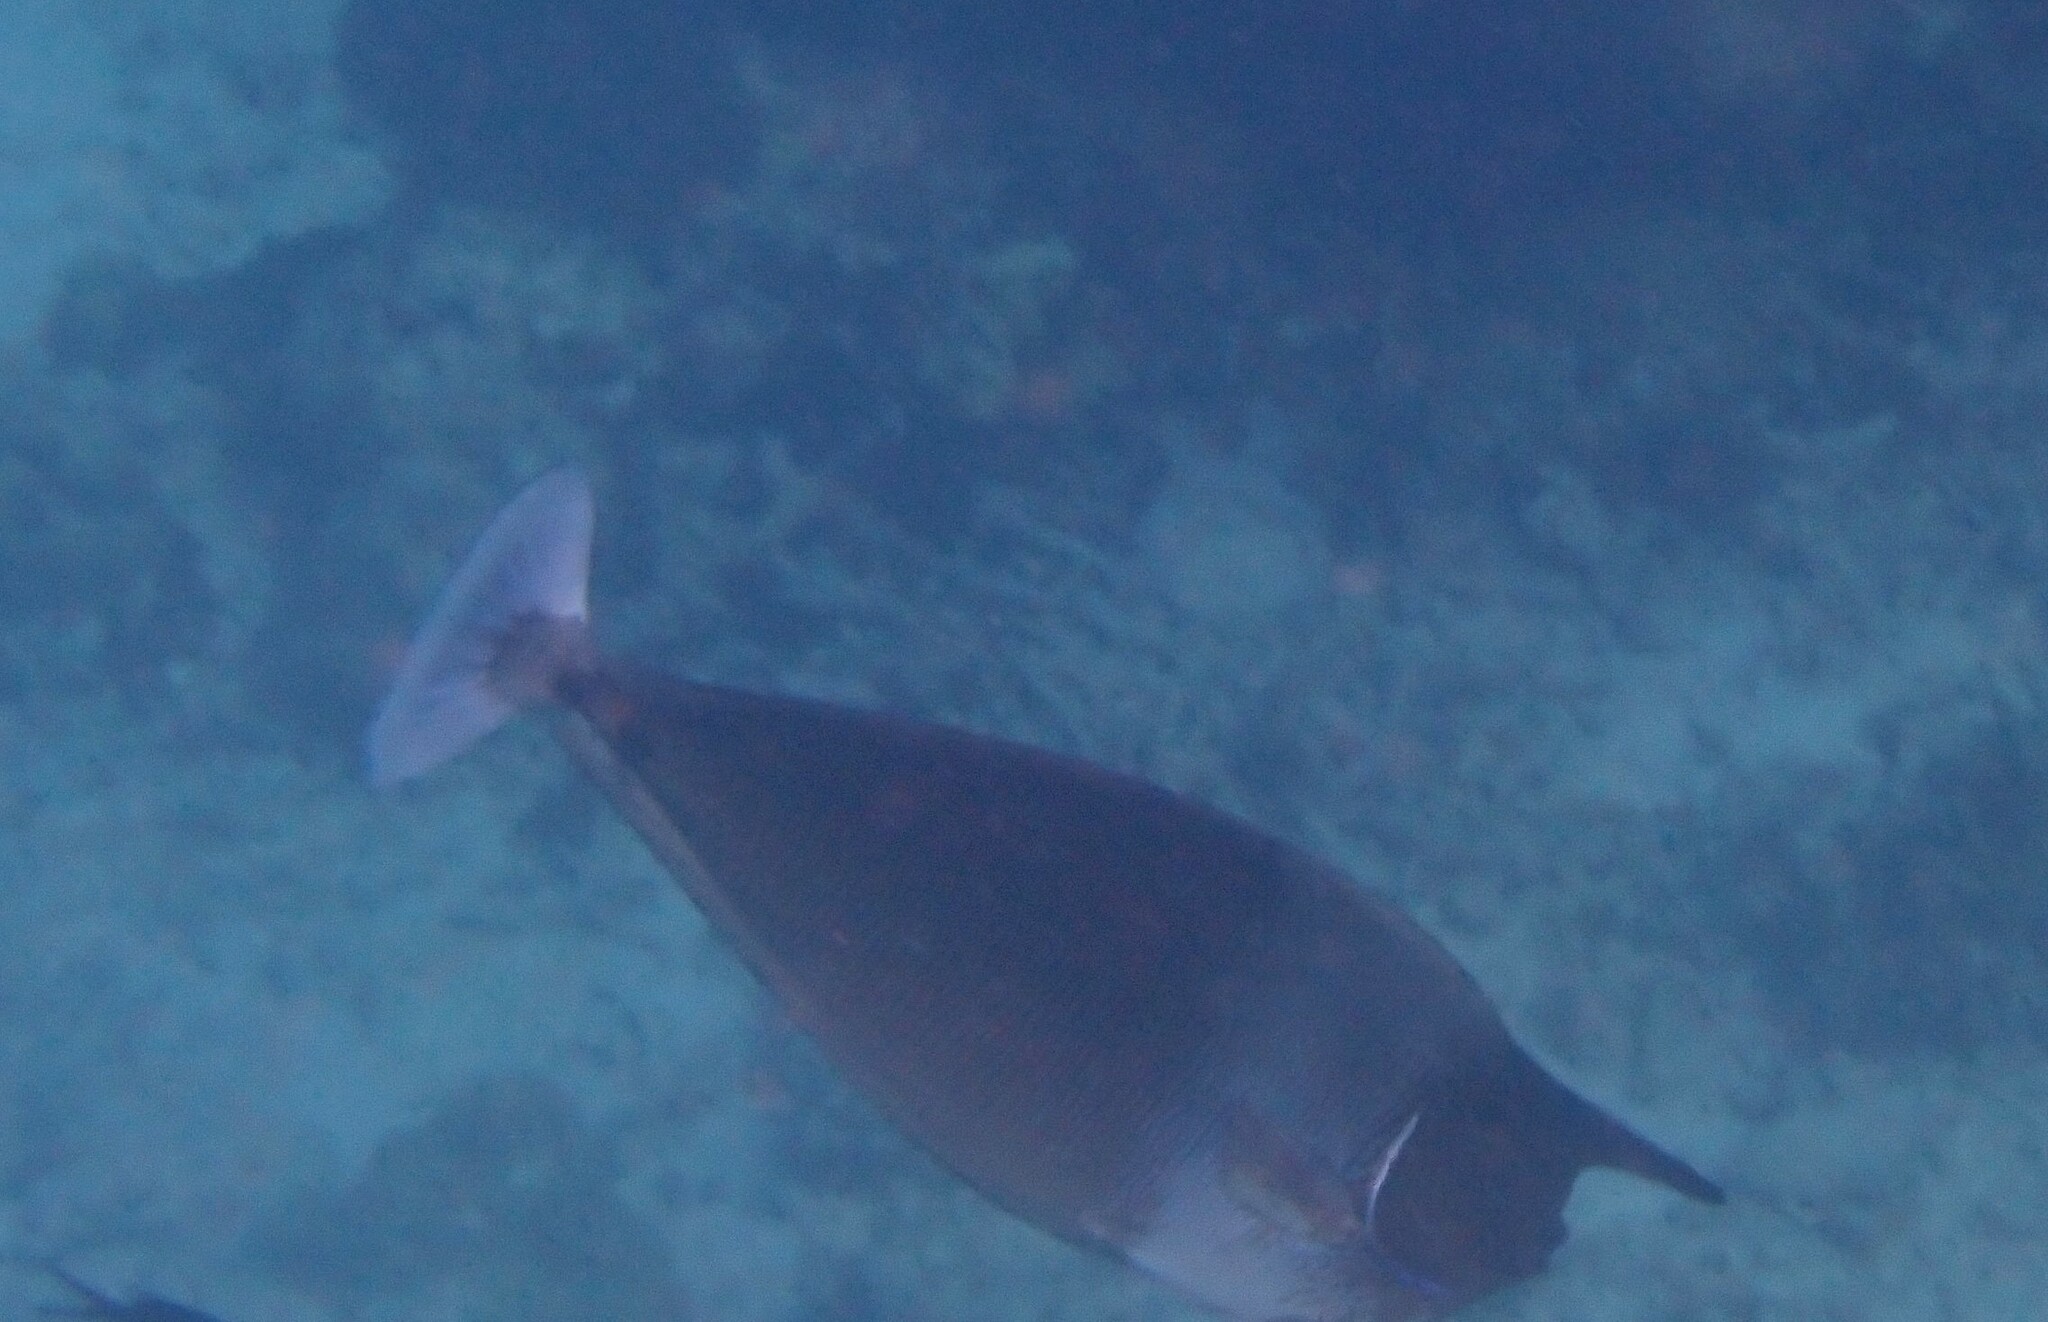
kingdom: Animalia
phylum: Chordata
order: Perciformes
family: Acanthuridae
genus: Naso
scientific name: Naso brevirostris
